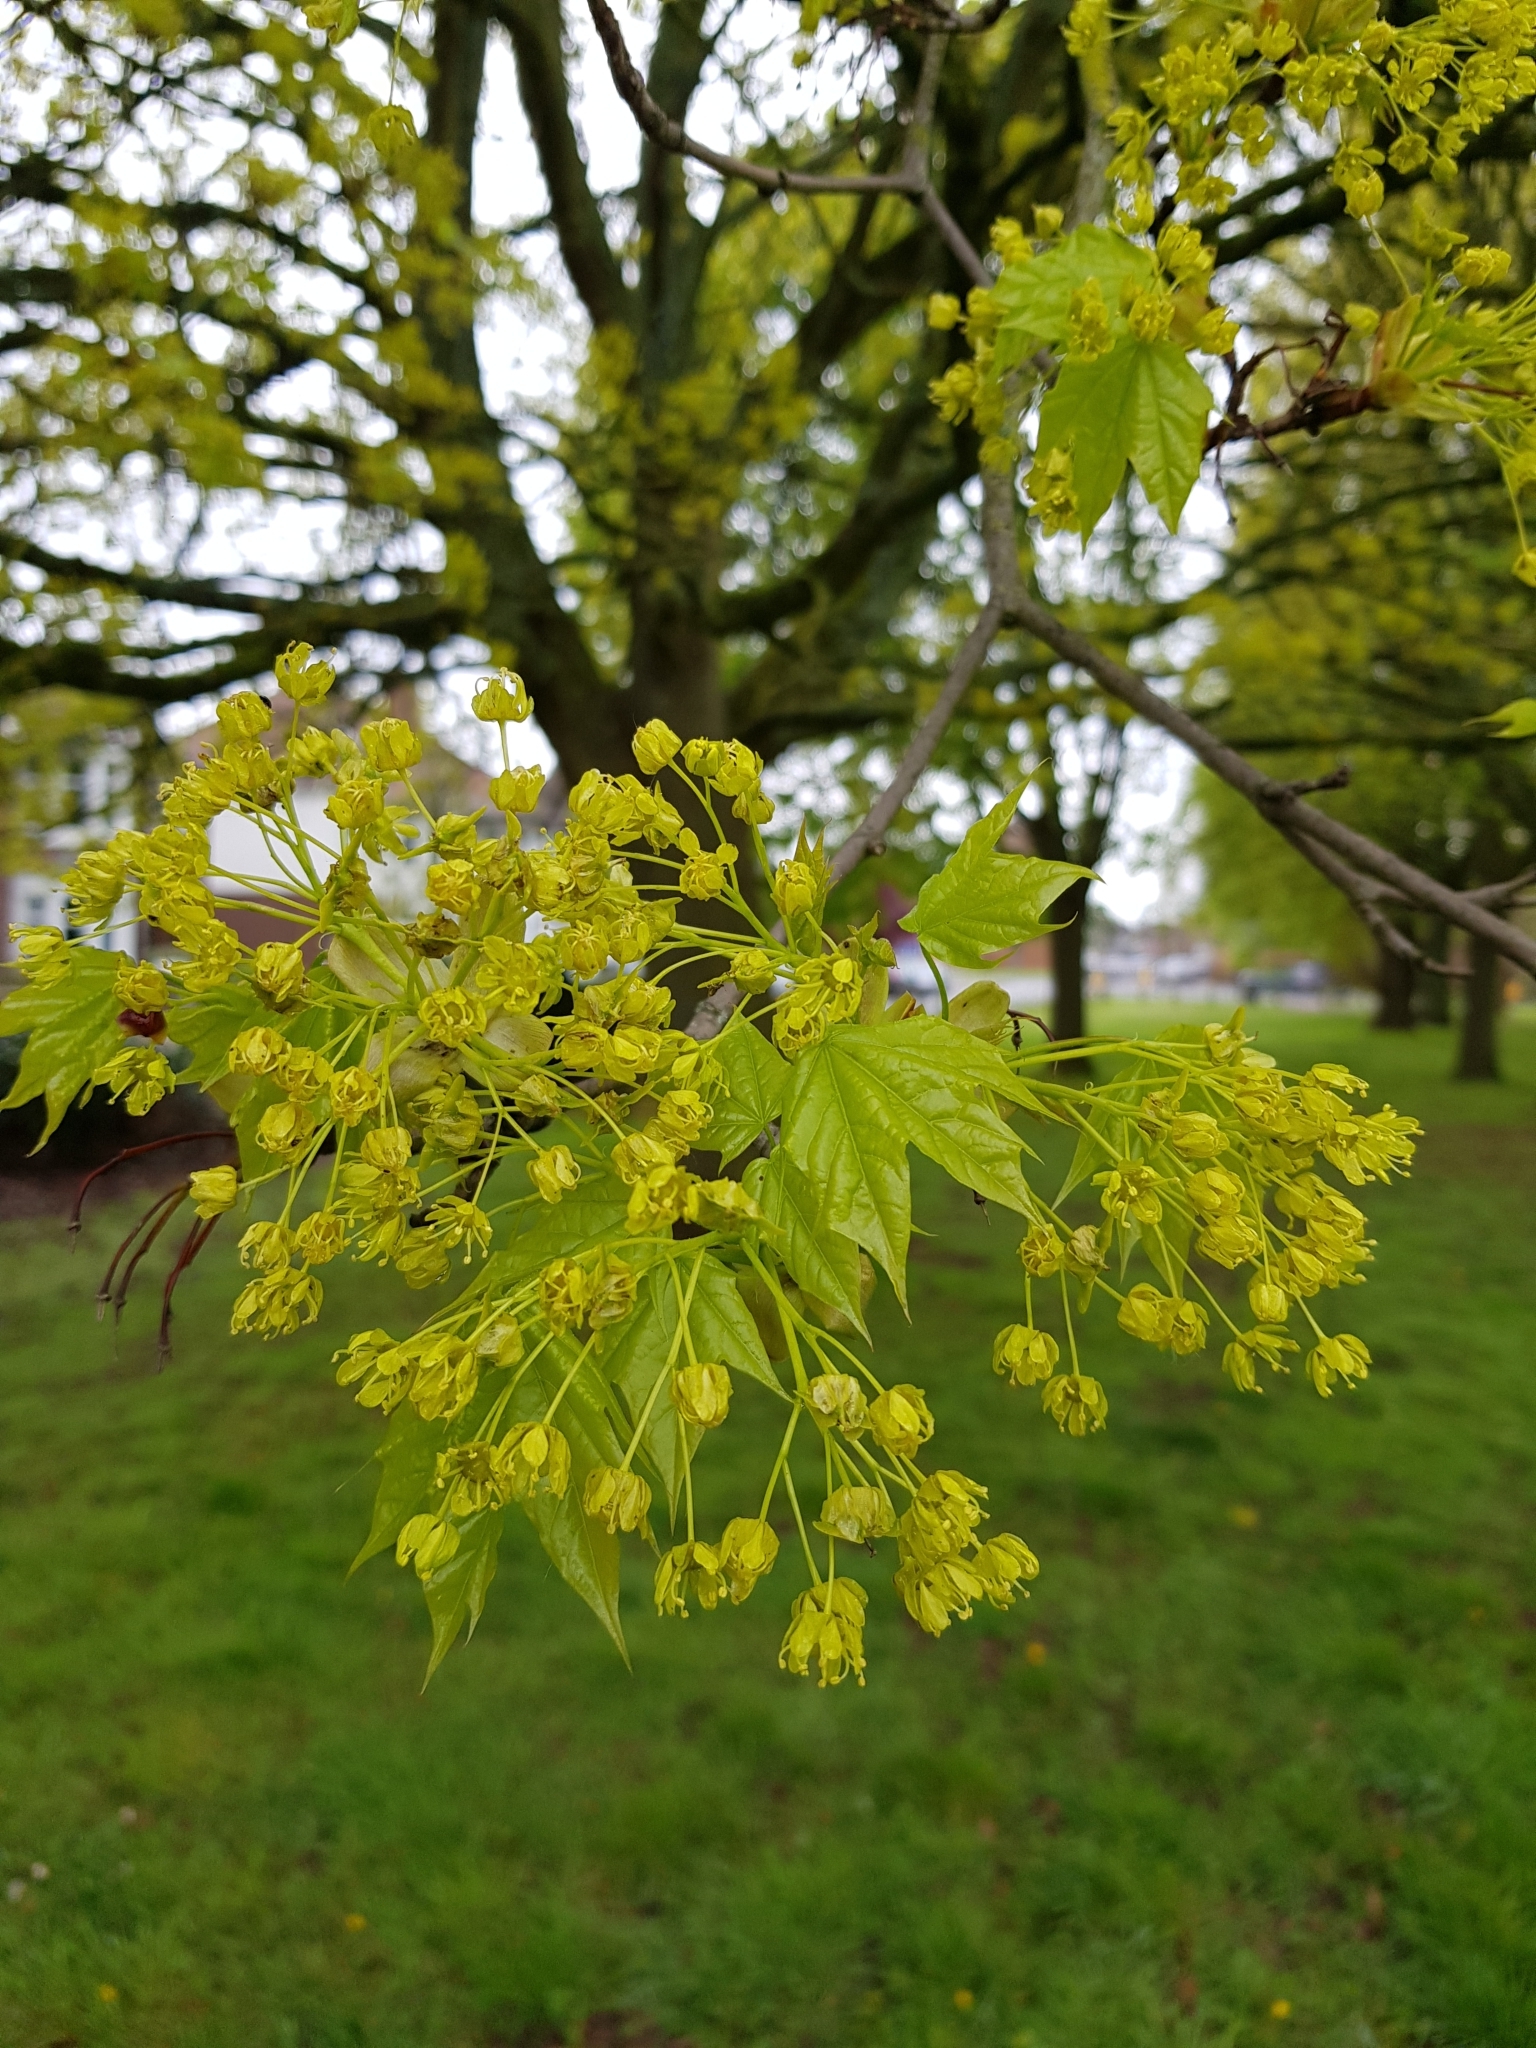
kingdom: Plantae
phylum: Tracheophyta
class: Magnoliopsida
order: Sapindales
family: Sapindaceae
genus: Acer
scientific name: Acer platanoides
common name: Norway maple
